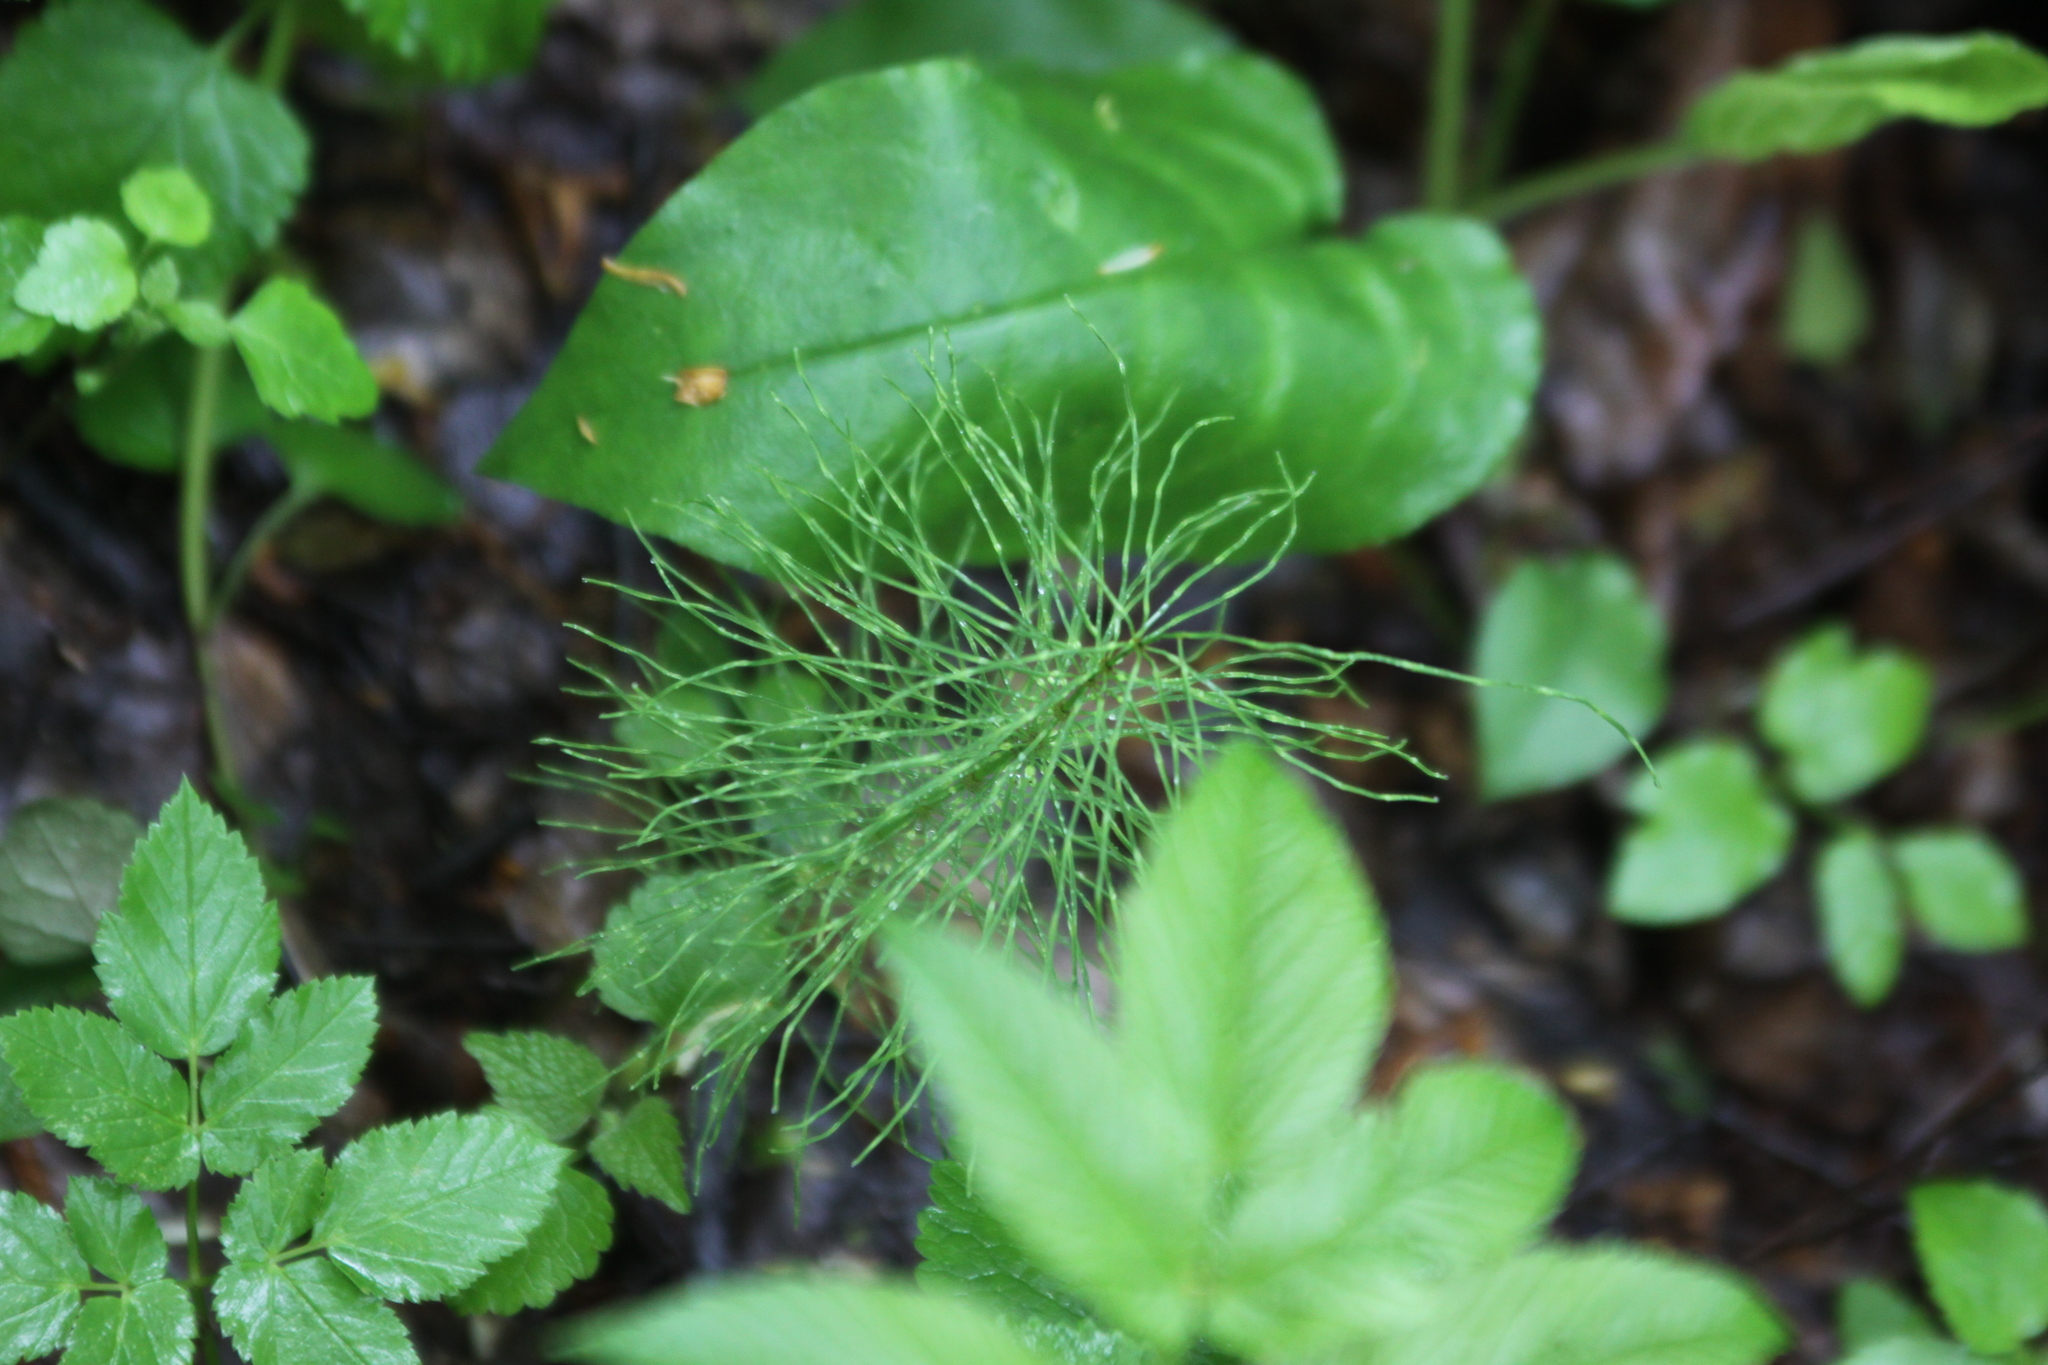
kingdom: Plantae
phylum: Tracheophyta
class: Polypodiopsida
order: Equisetales
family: Equisetaceae
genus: Equisetum
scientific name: Equisetum pratense
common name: Meadow horsetail
